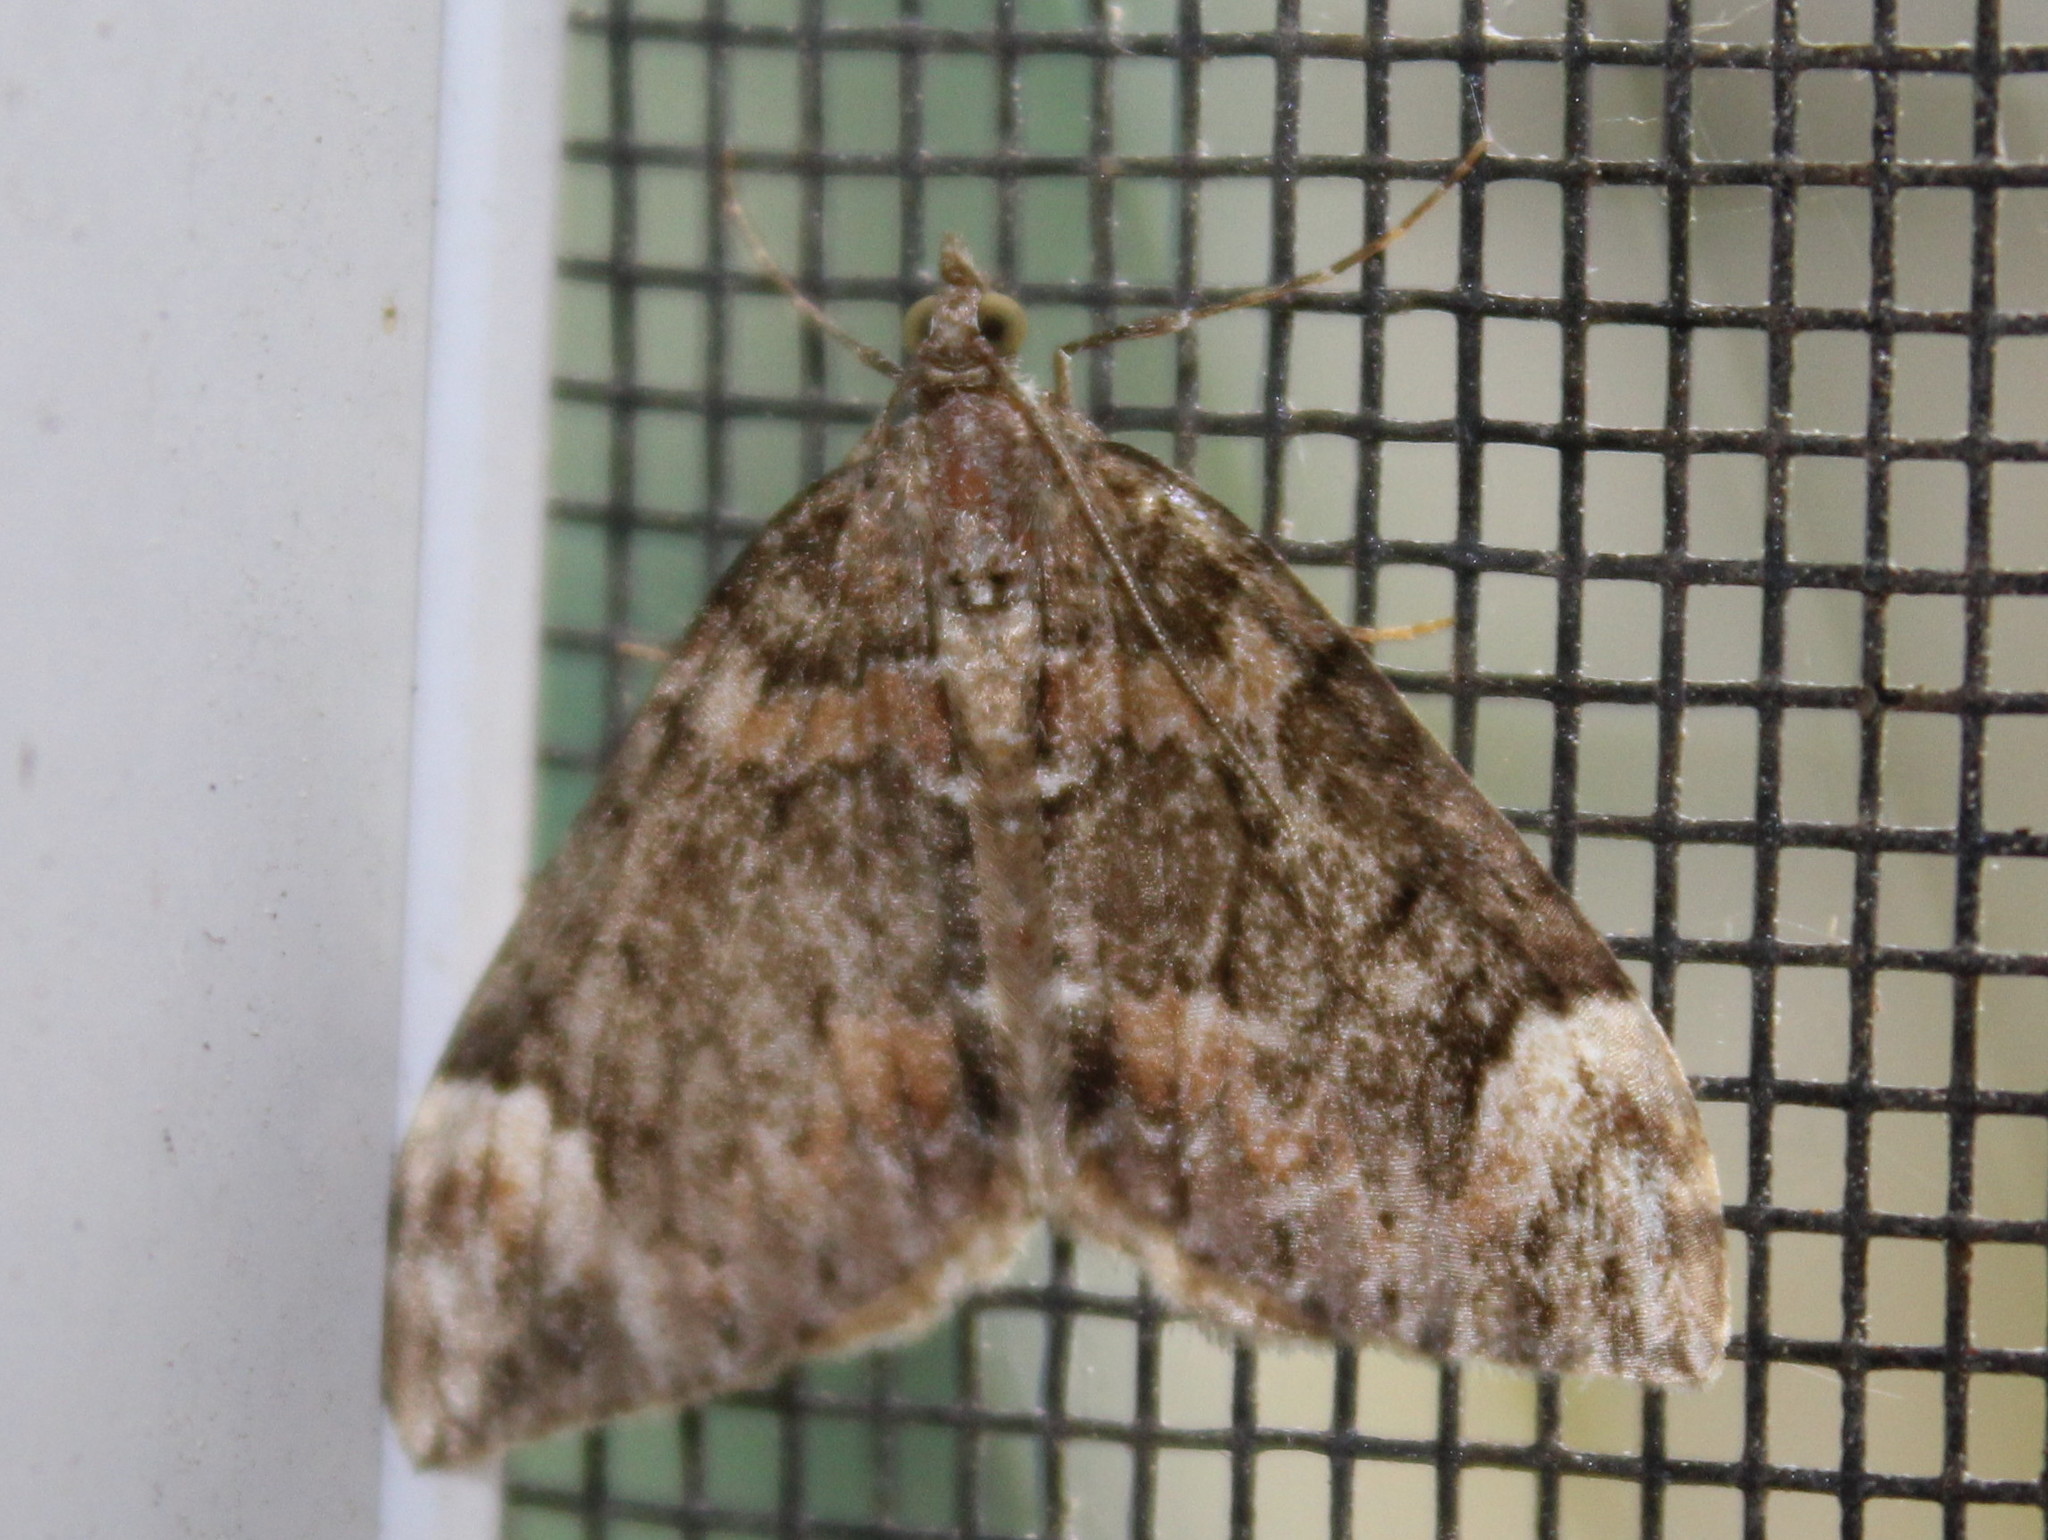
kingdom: Animalia
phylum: Arthropoda
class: Insecta
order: Lepidoptera
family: Geometridae
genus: Dysstroma
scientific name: Dysstroma citrata
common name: Dark marbled carpet
